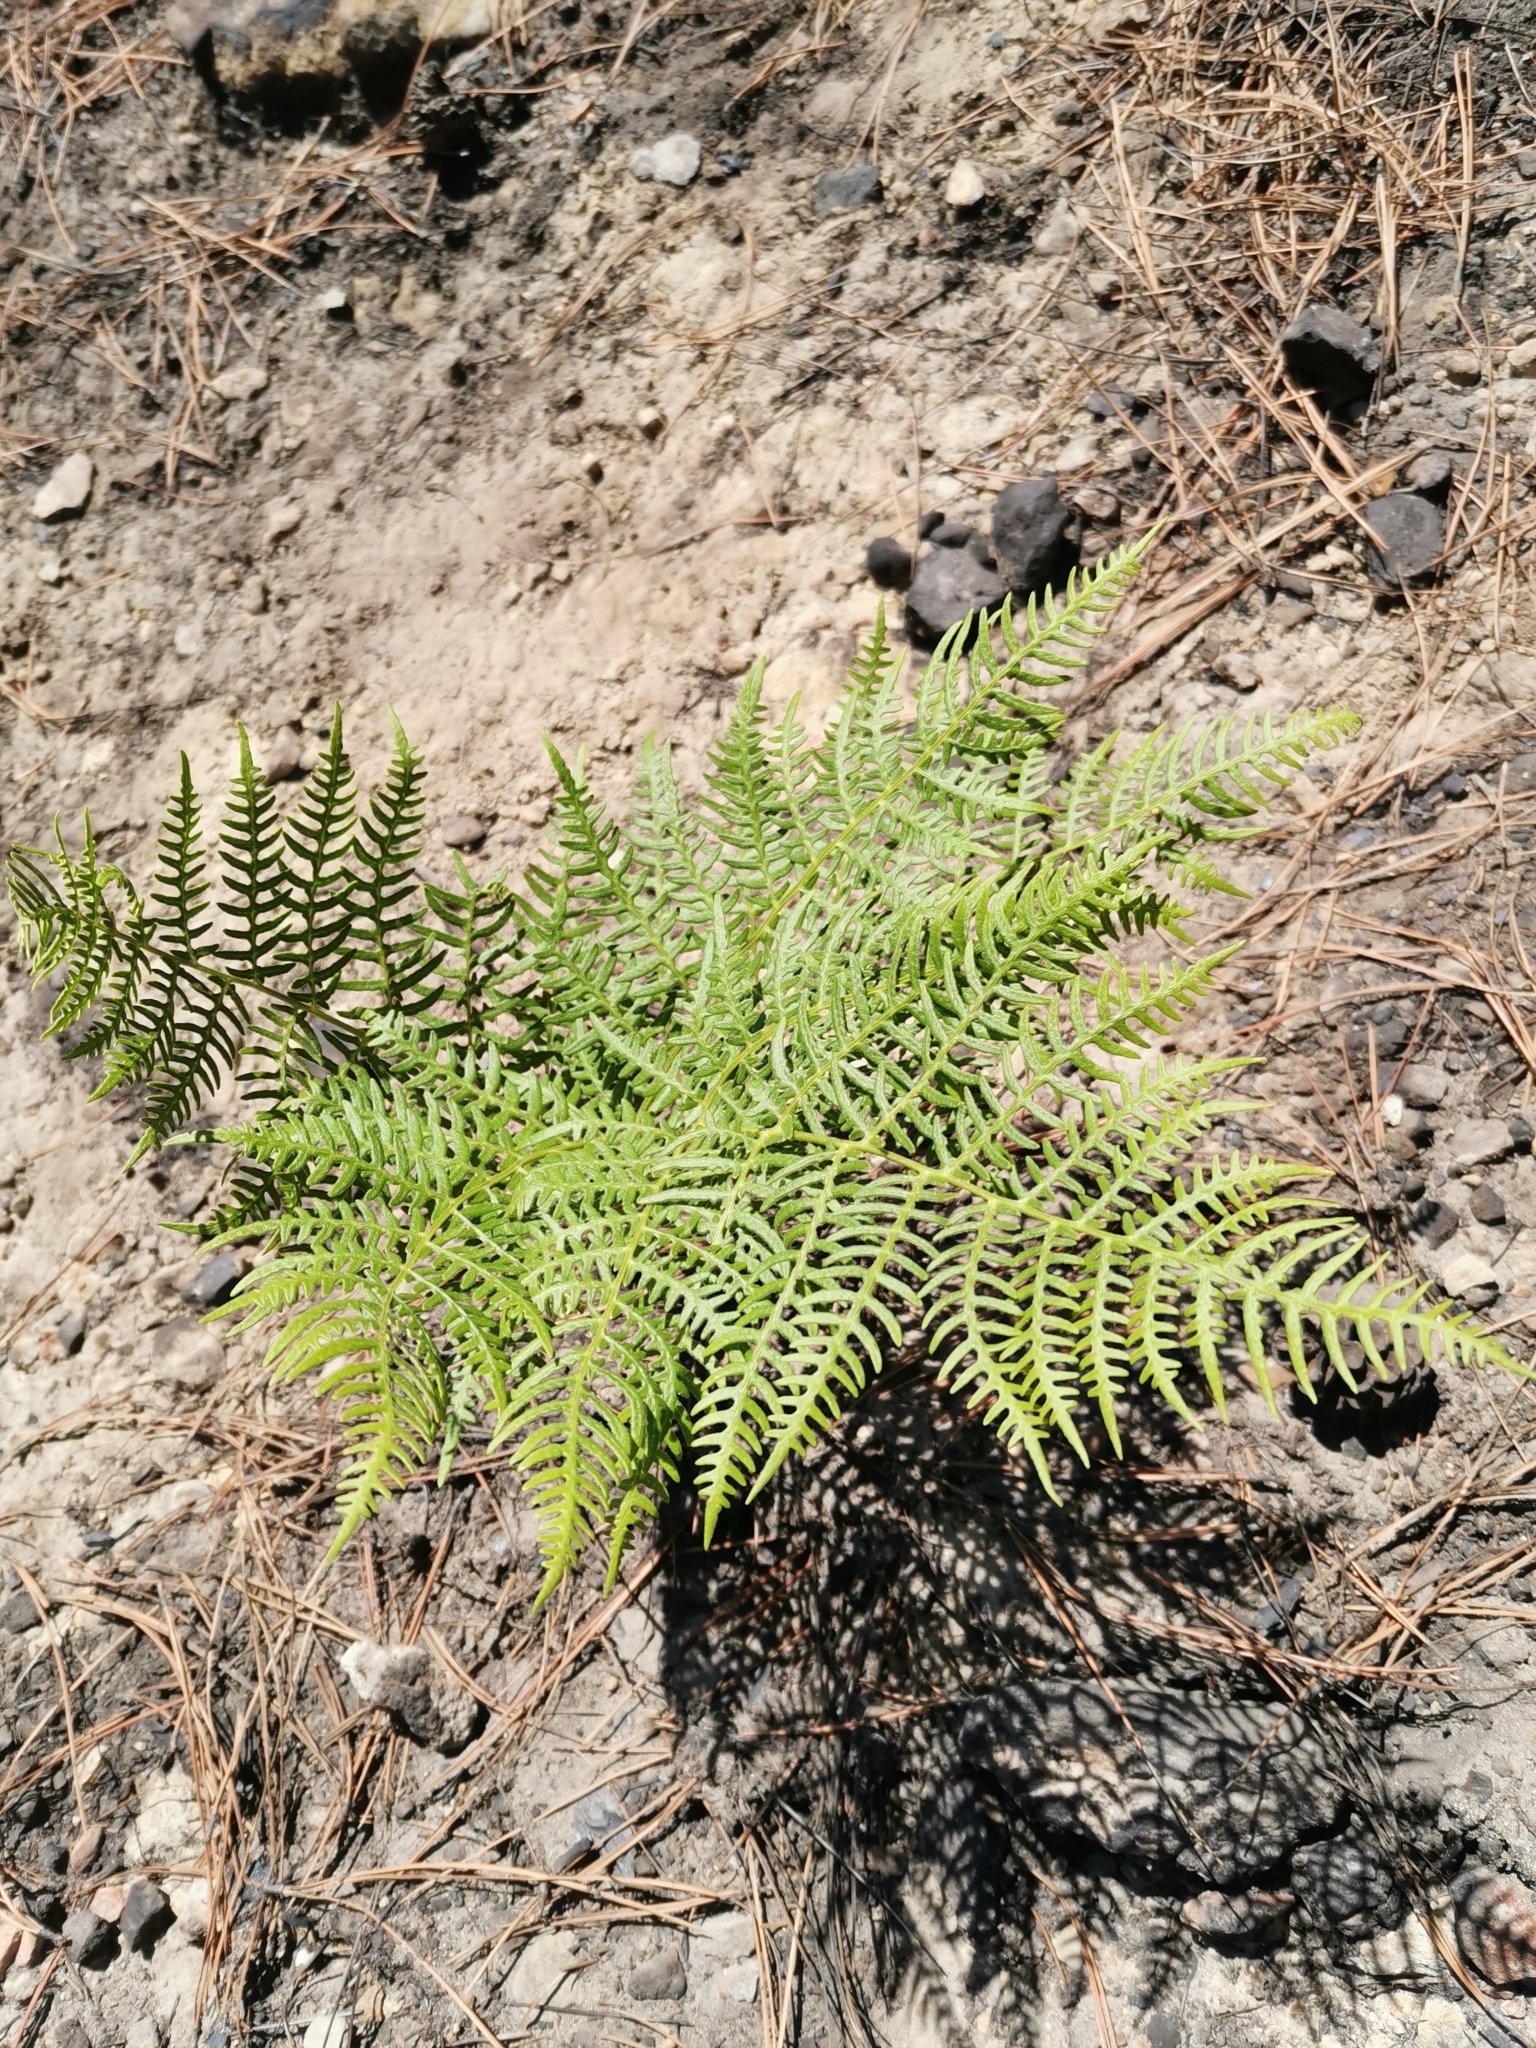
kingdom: Plantae
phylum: Tracheophyta
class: Polypodiopsida
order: Polypodiales
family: Dennstaedtiaceae
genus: Pteridium
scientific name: Pteridium caudatum
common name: Southern bracken fern
